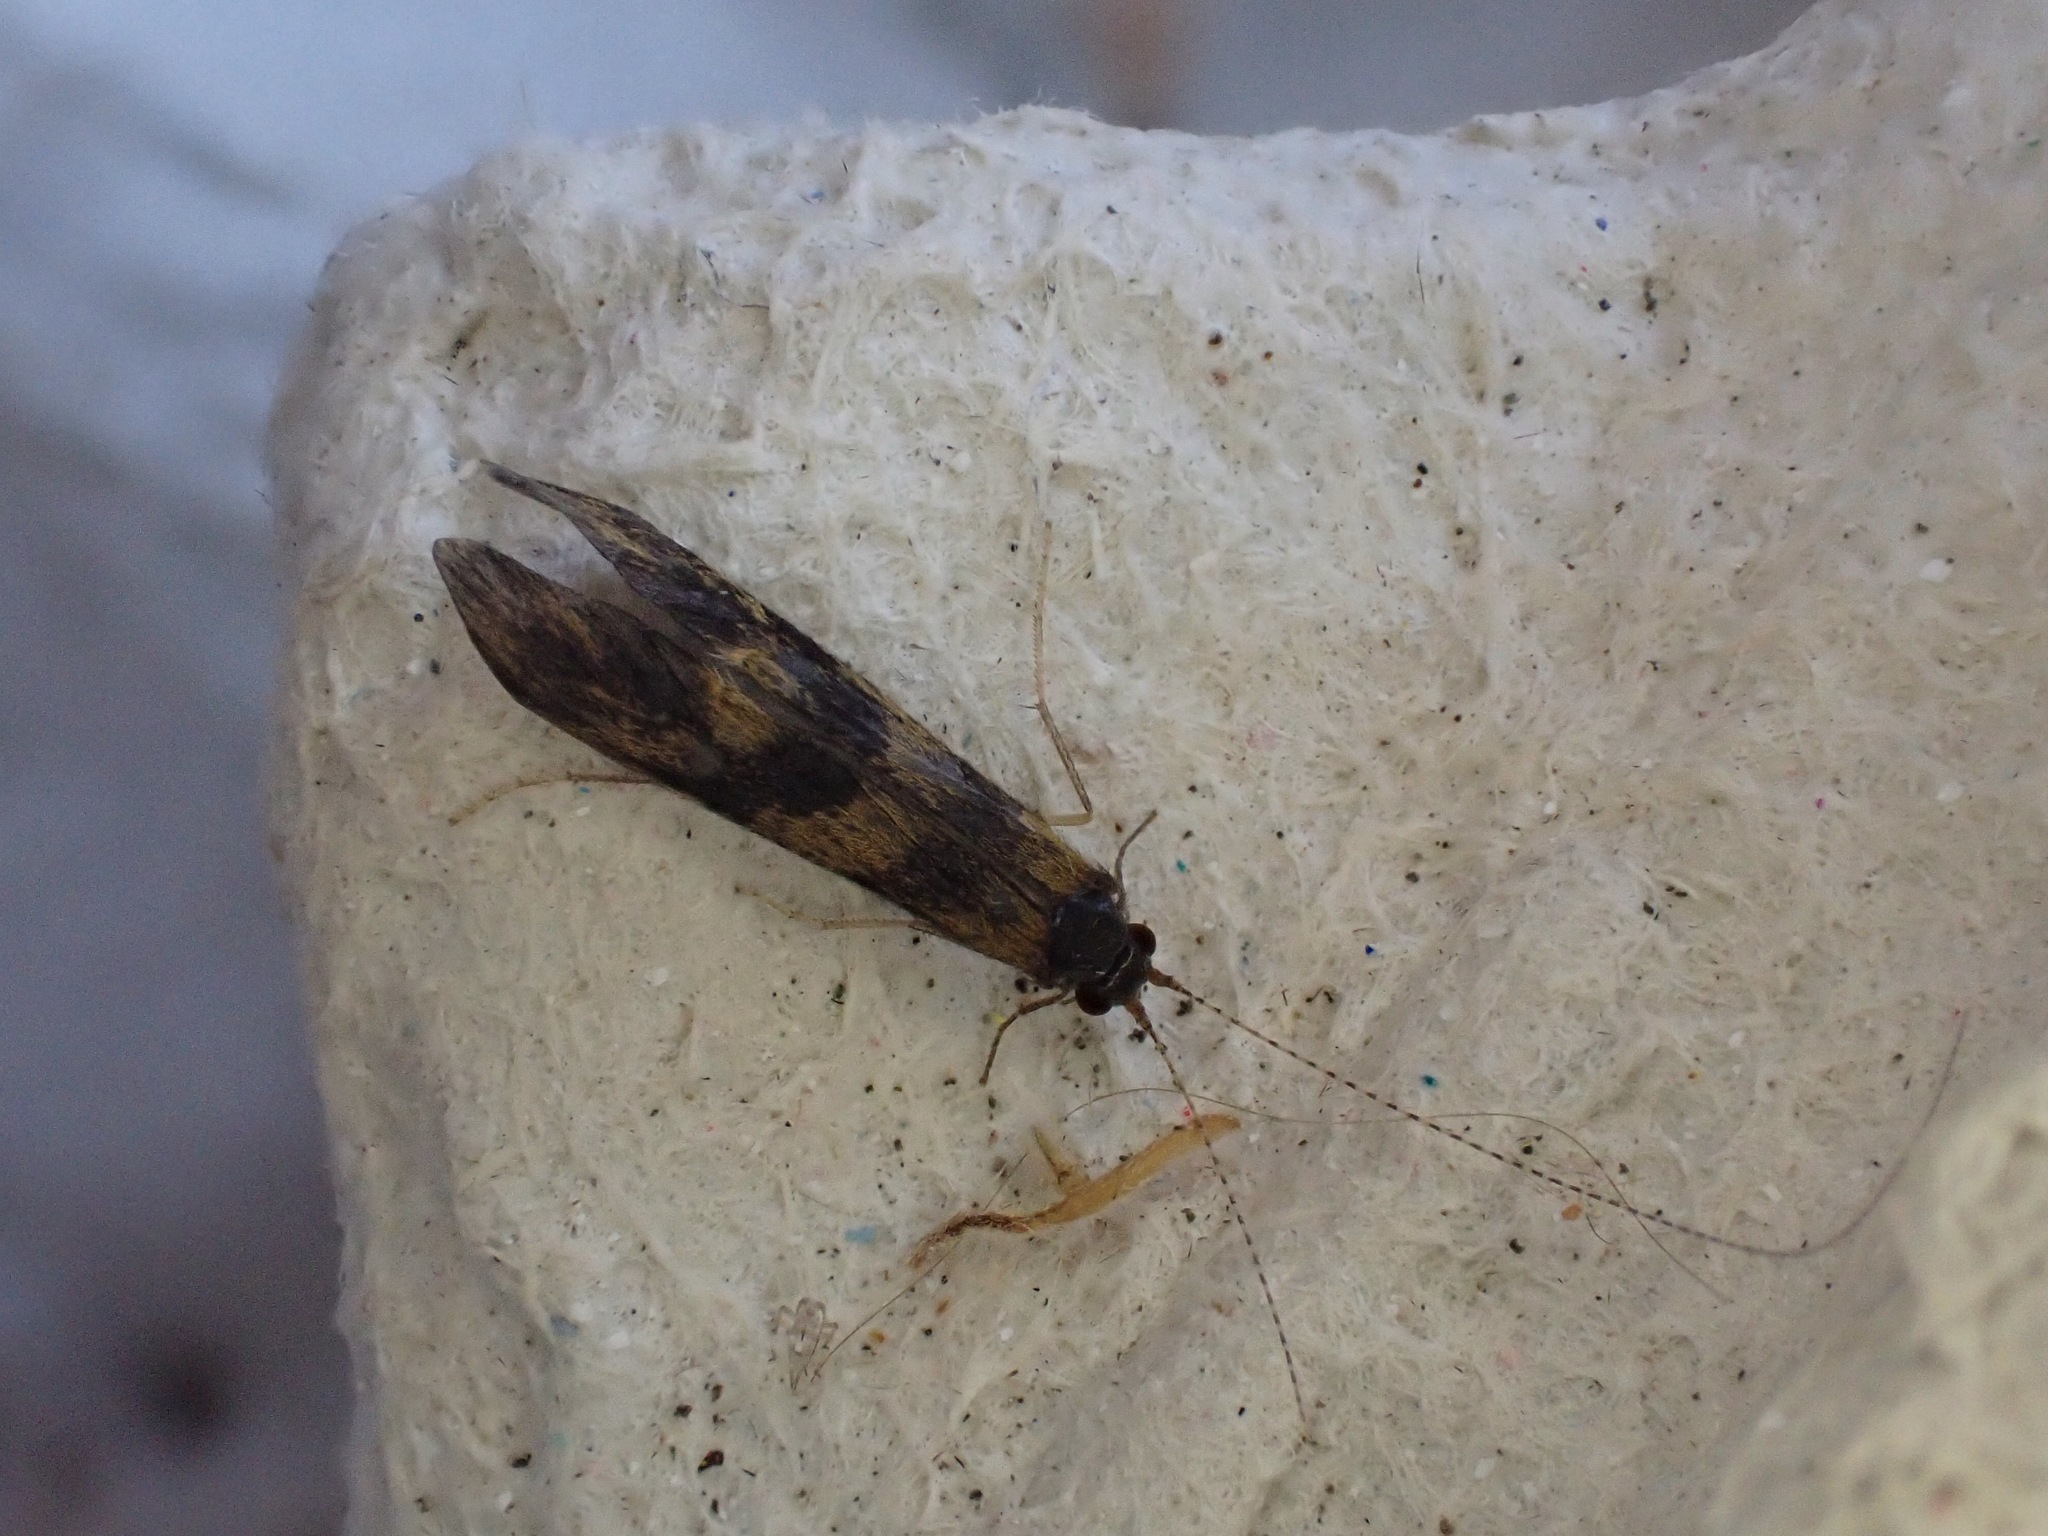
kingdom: Animalia
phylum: Arthropoda
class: Insecta
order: Trichoptera
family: Leptoceridae
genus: Mystacides
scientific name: Mystacides longicornis
